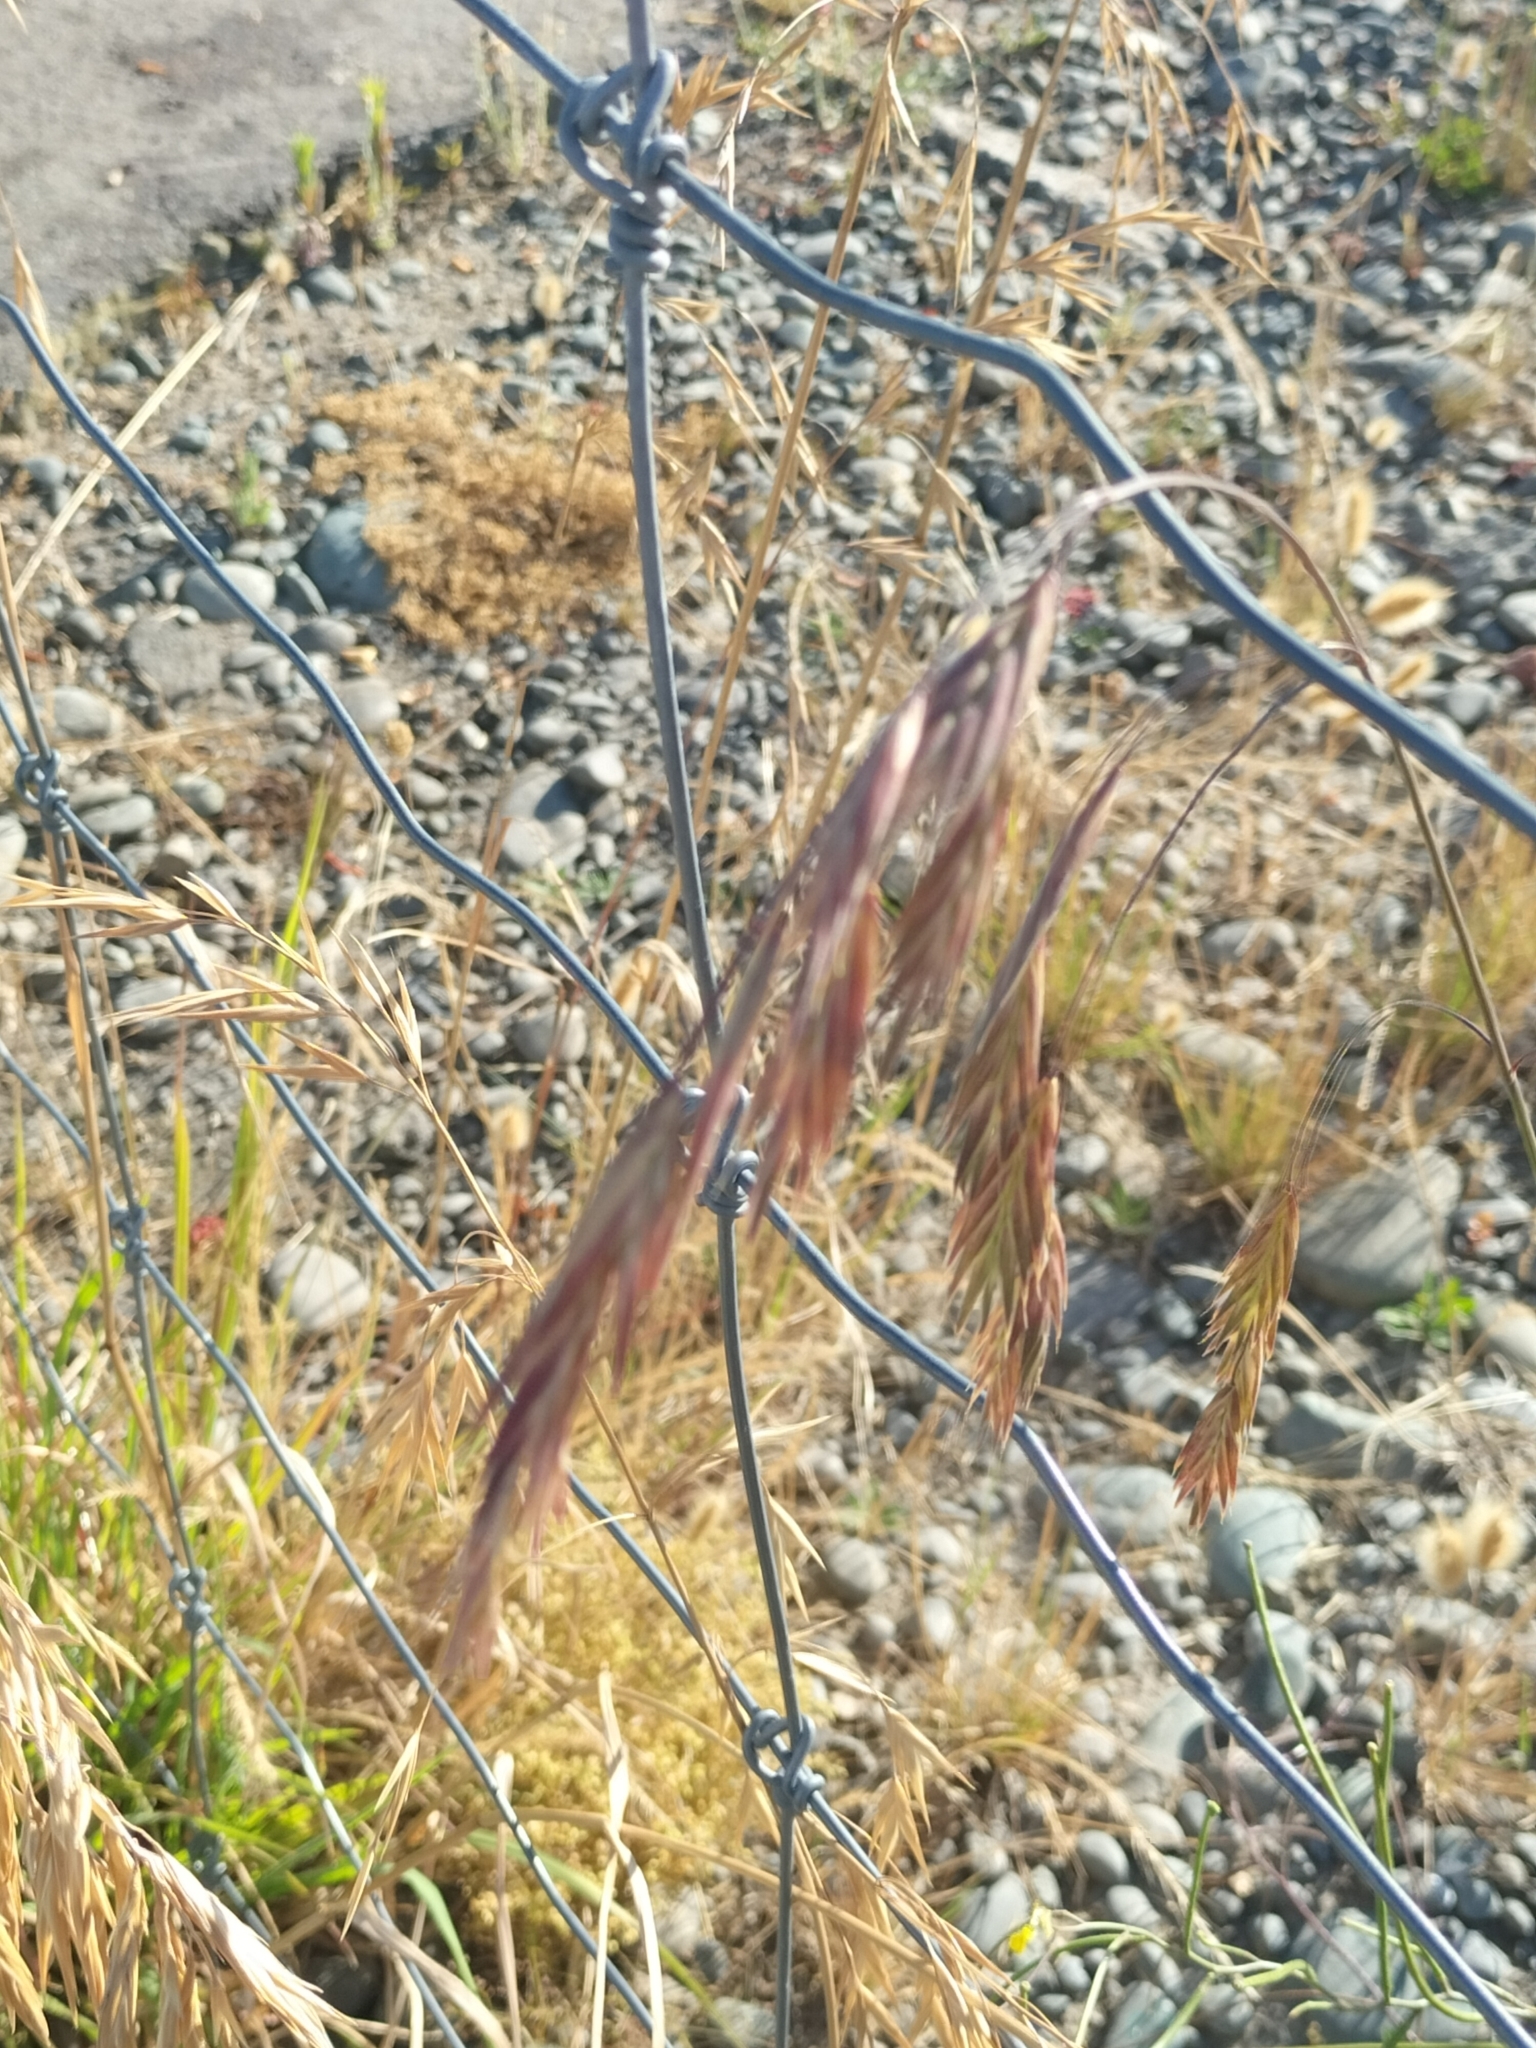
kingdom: Plantae
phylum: Tracheophyta
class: Liliopsida
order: Poales
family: Poaceae
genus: Bromus
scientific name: Bromus catharticus
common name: Rescuegrass
